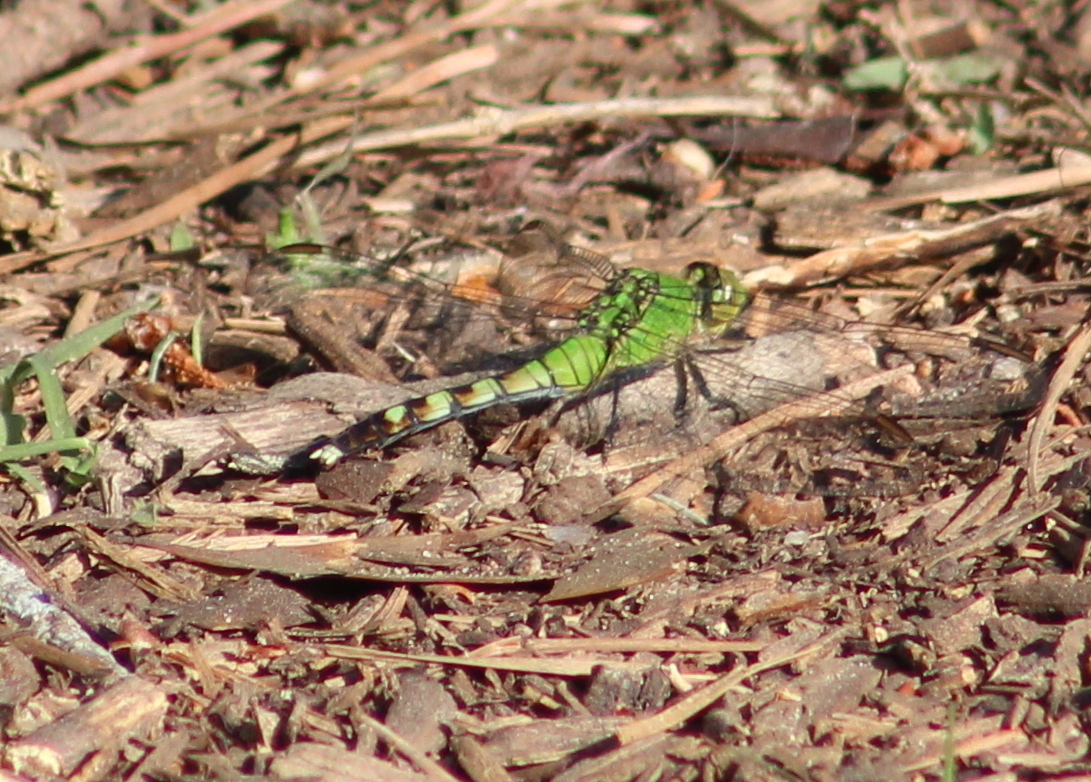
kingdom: Animalia
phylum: Arthropoda
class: Insecta
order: Odonata
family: Libellulidae
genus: Erythemis
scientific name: Erythemis simplicicollis
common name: Eastern pondhawk
